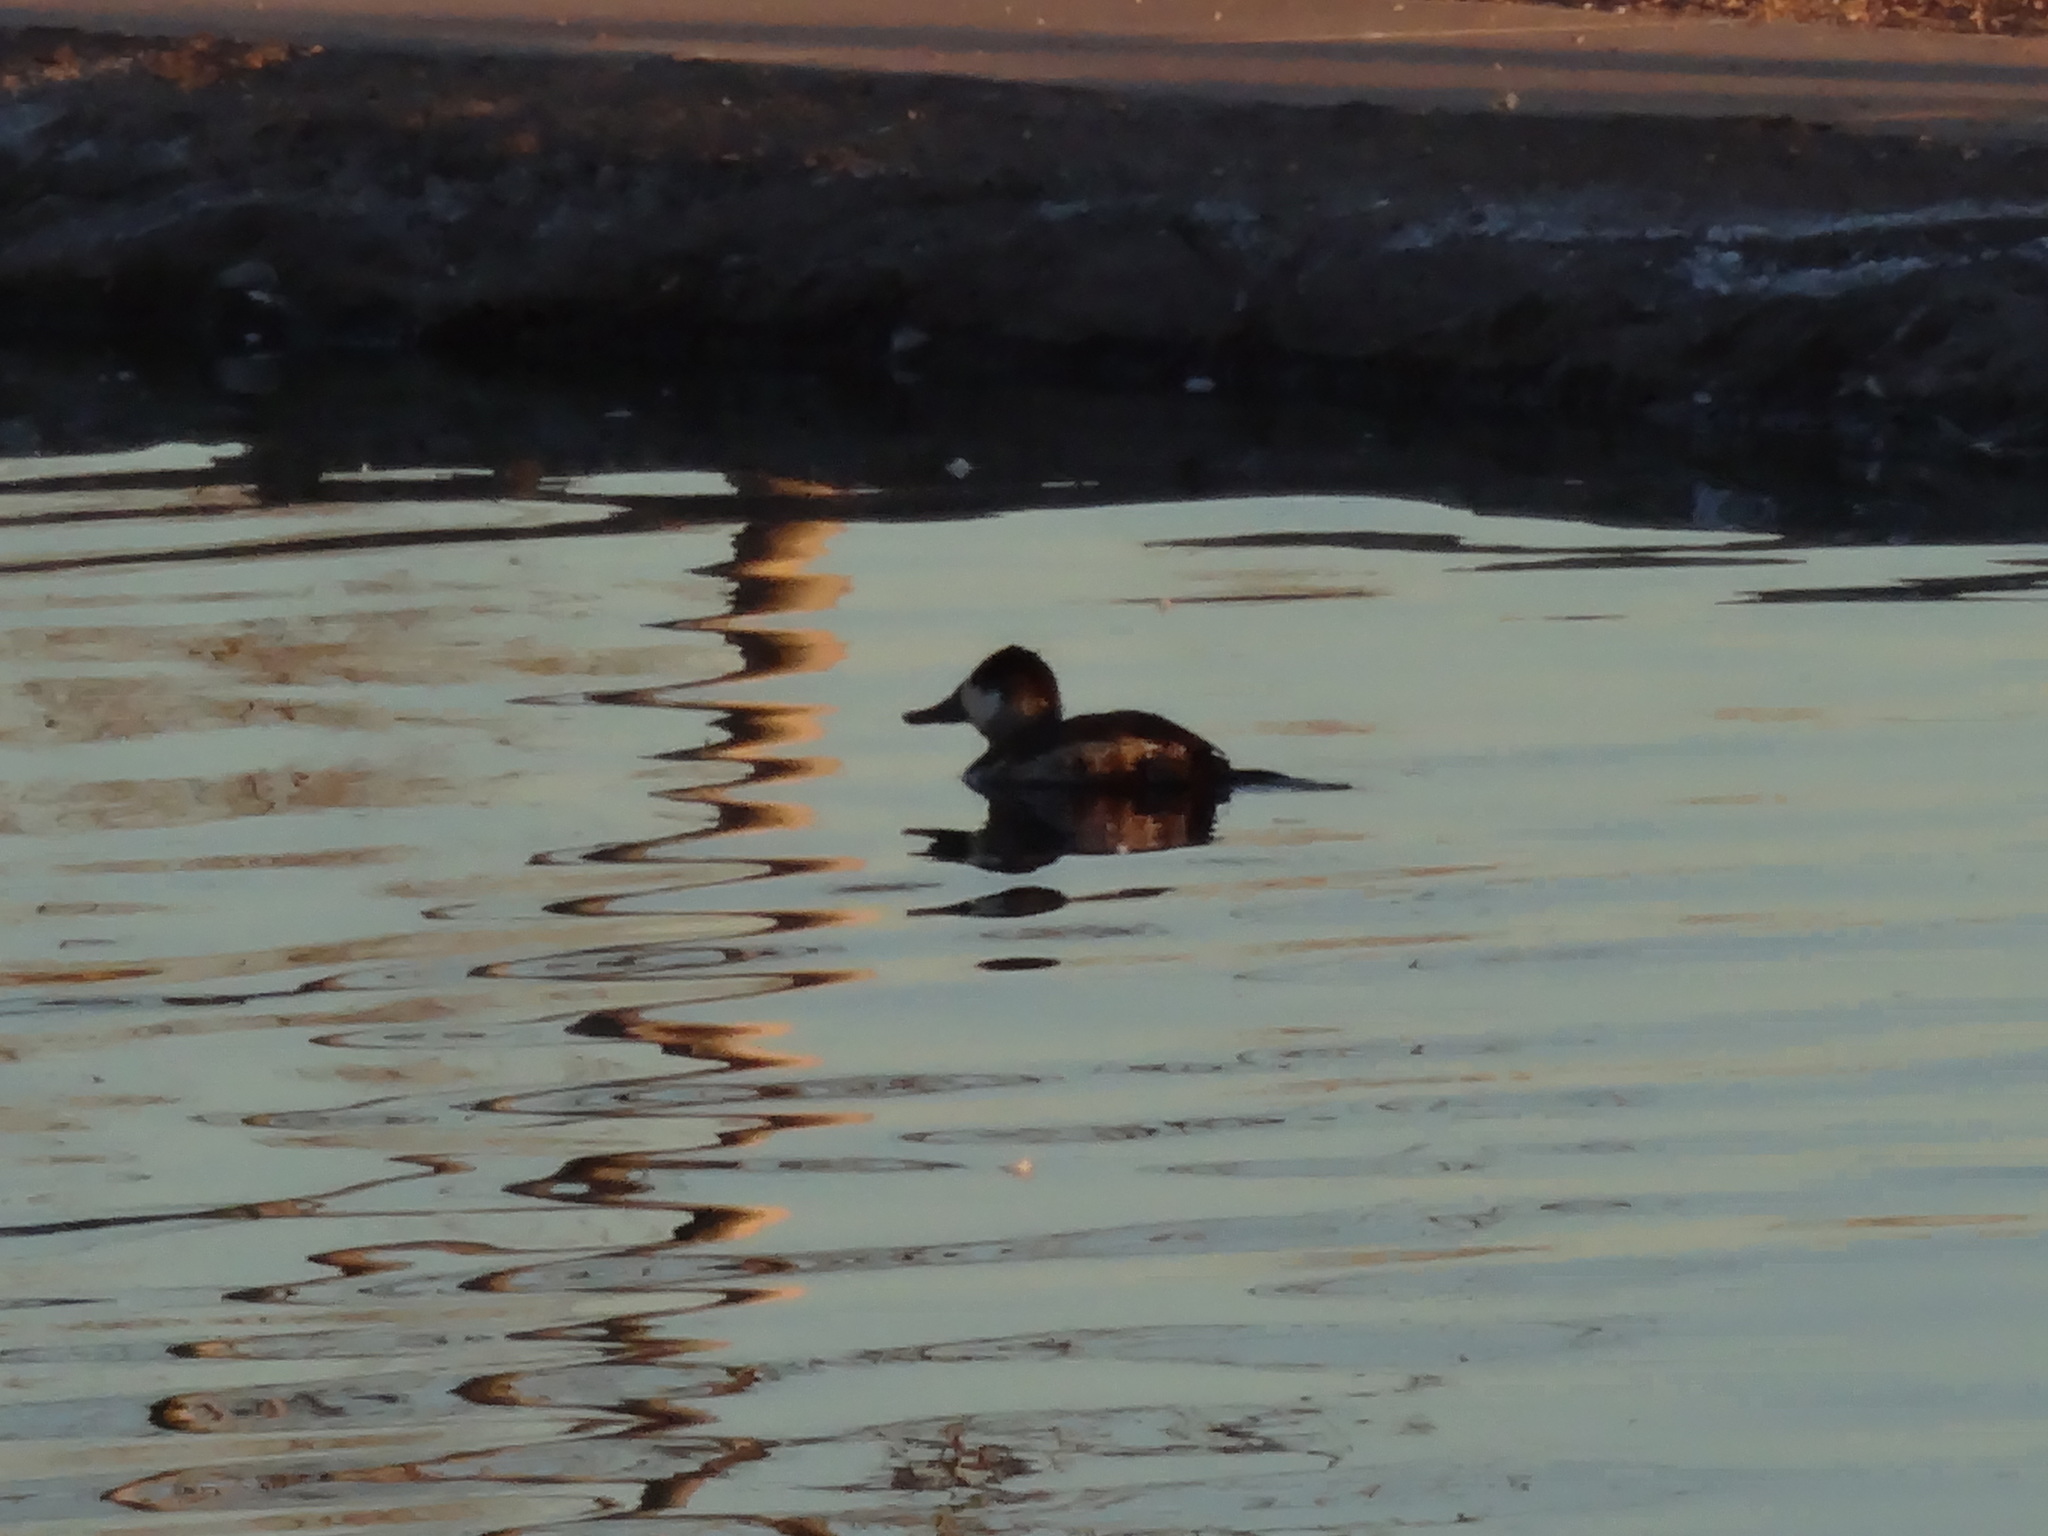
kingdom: Animalia
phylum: Chordata
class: Aves
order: Anseriformes
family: Anatidae
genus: Oxyura
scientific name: Oxyura jamaicensis
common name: Ruddy duck
